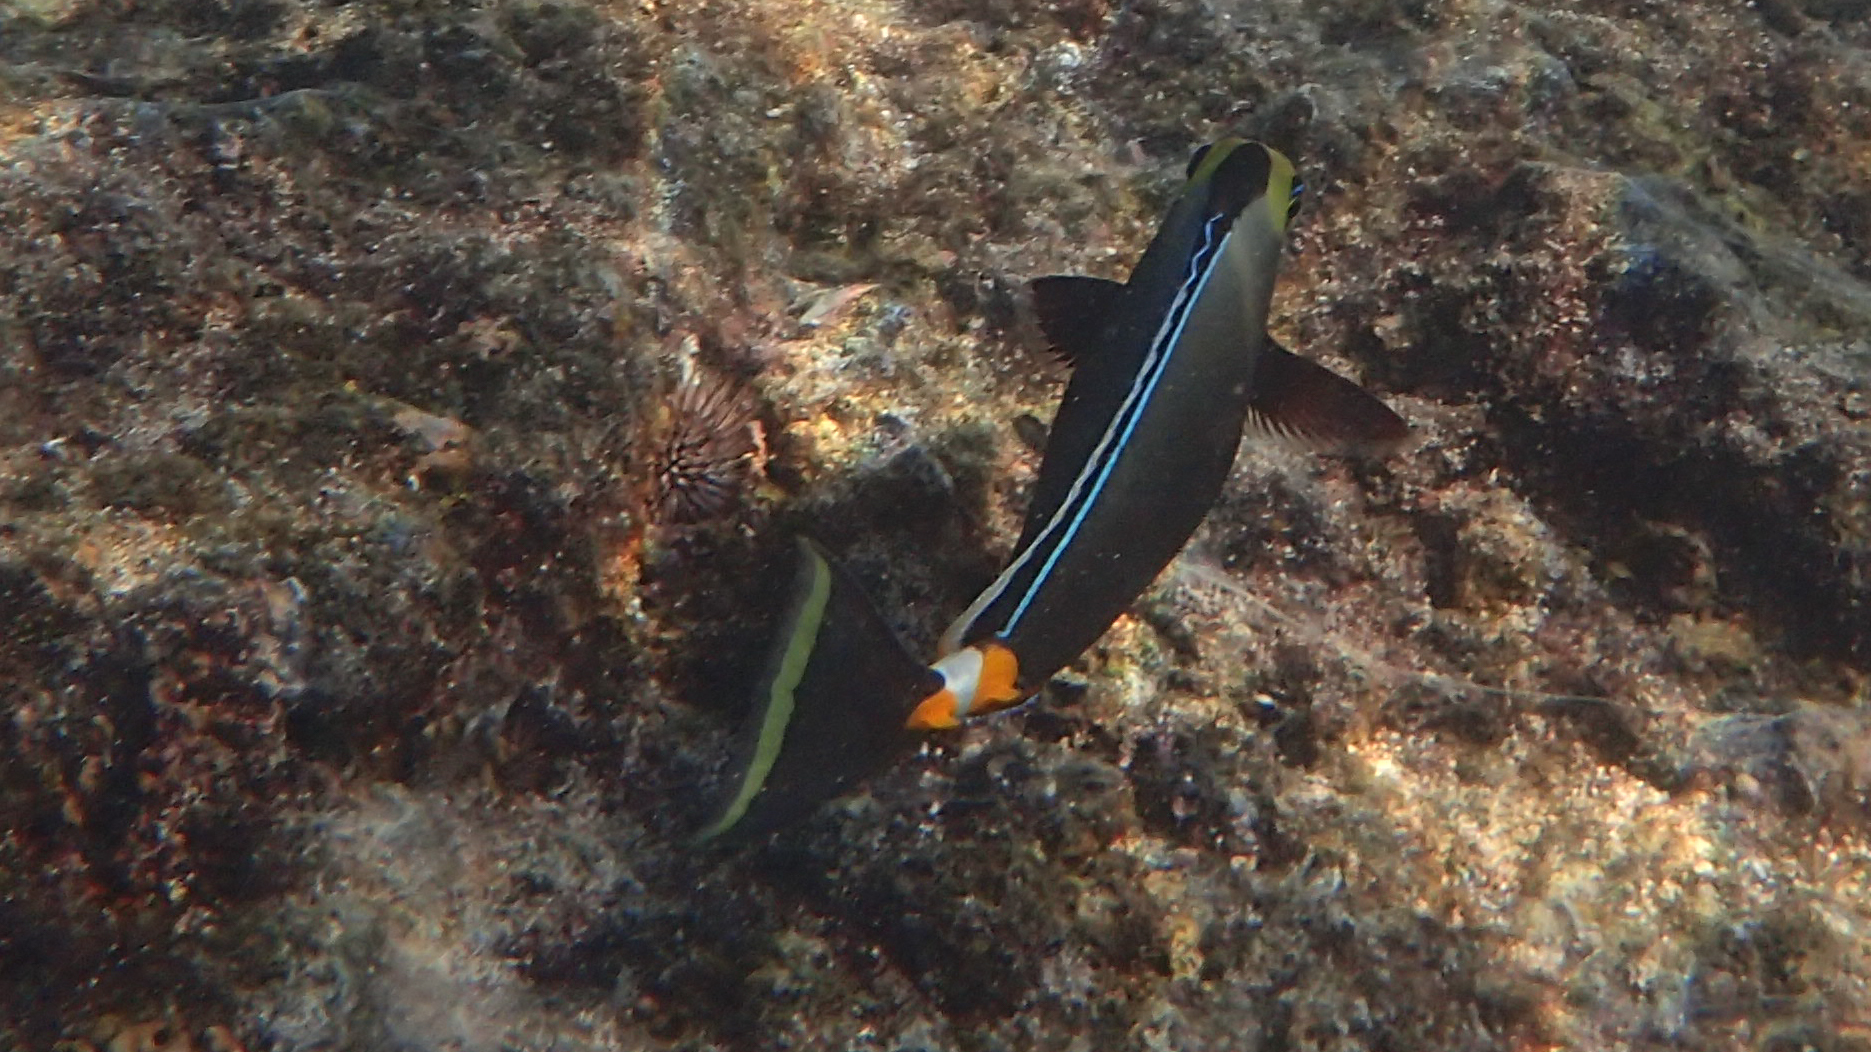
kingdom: Animalia
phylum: Chordata
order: Perciformes
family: Acanthuridae
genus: Naso
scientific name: Naso lituratus
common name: Orangespine unicornfish
